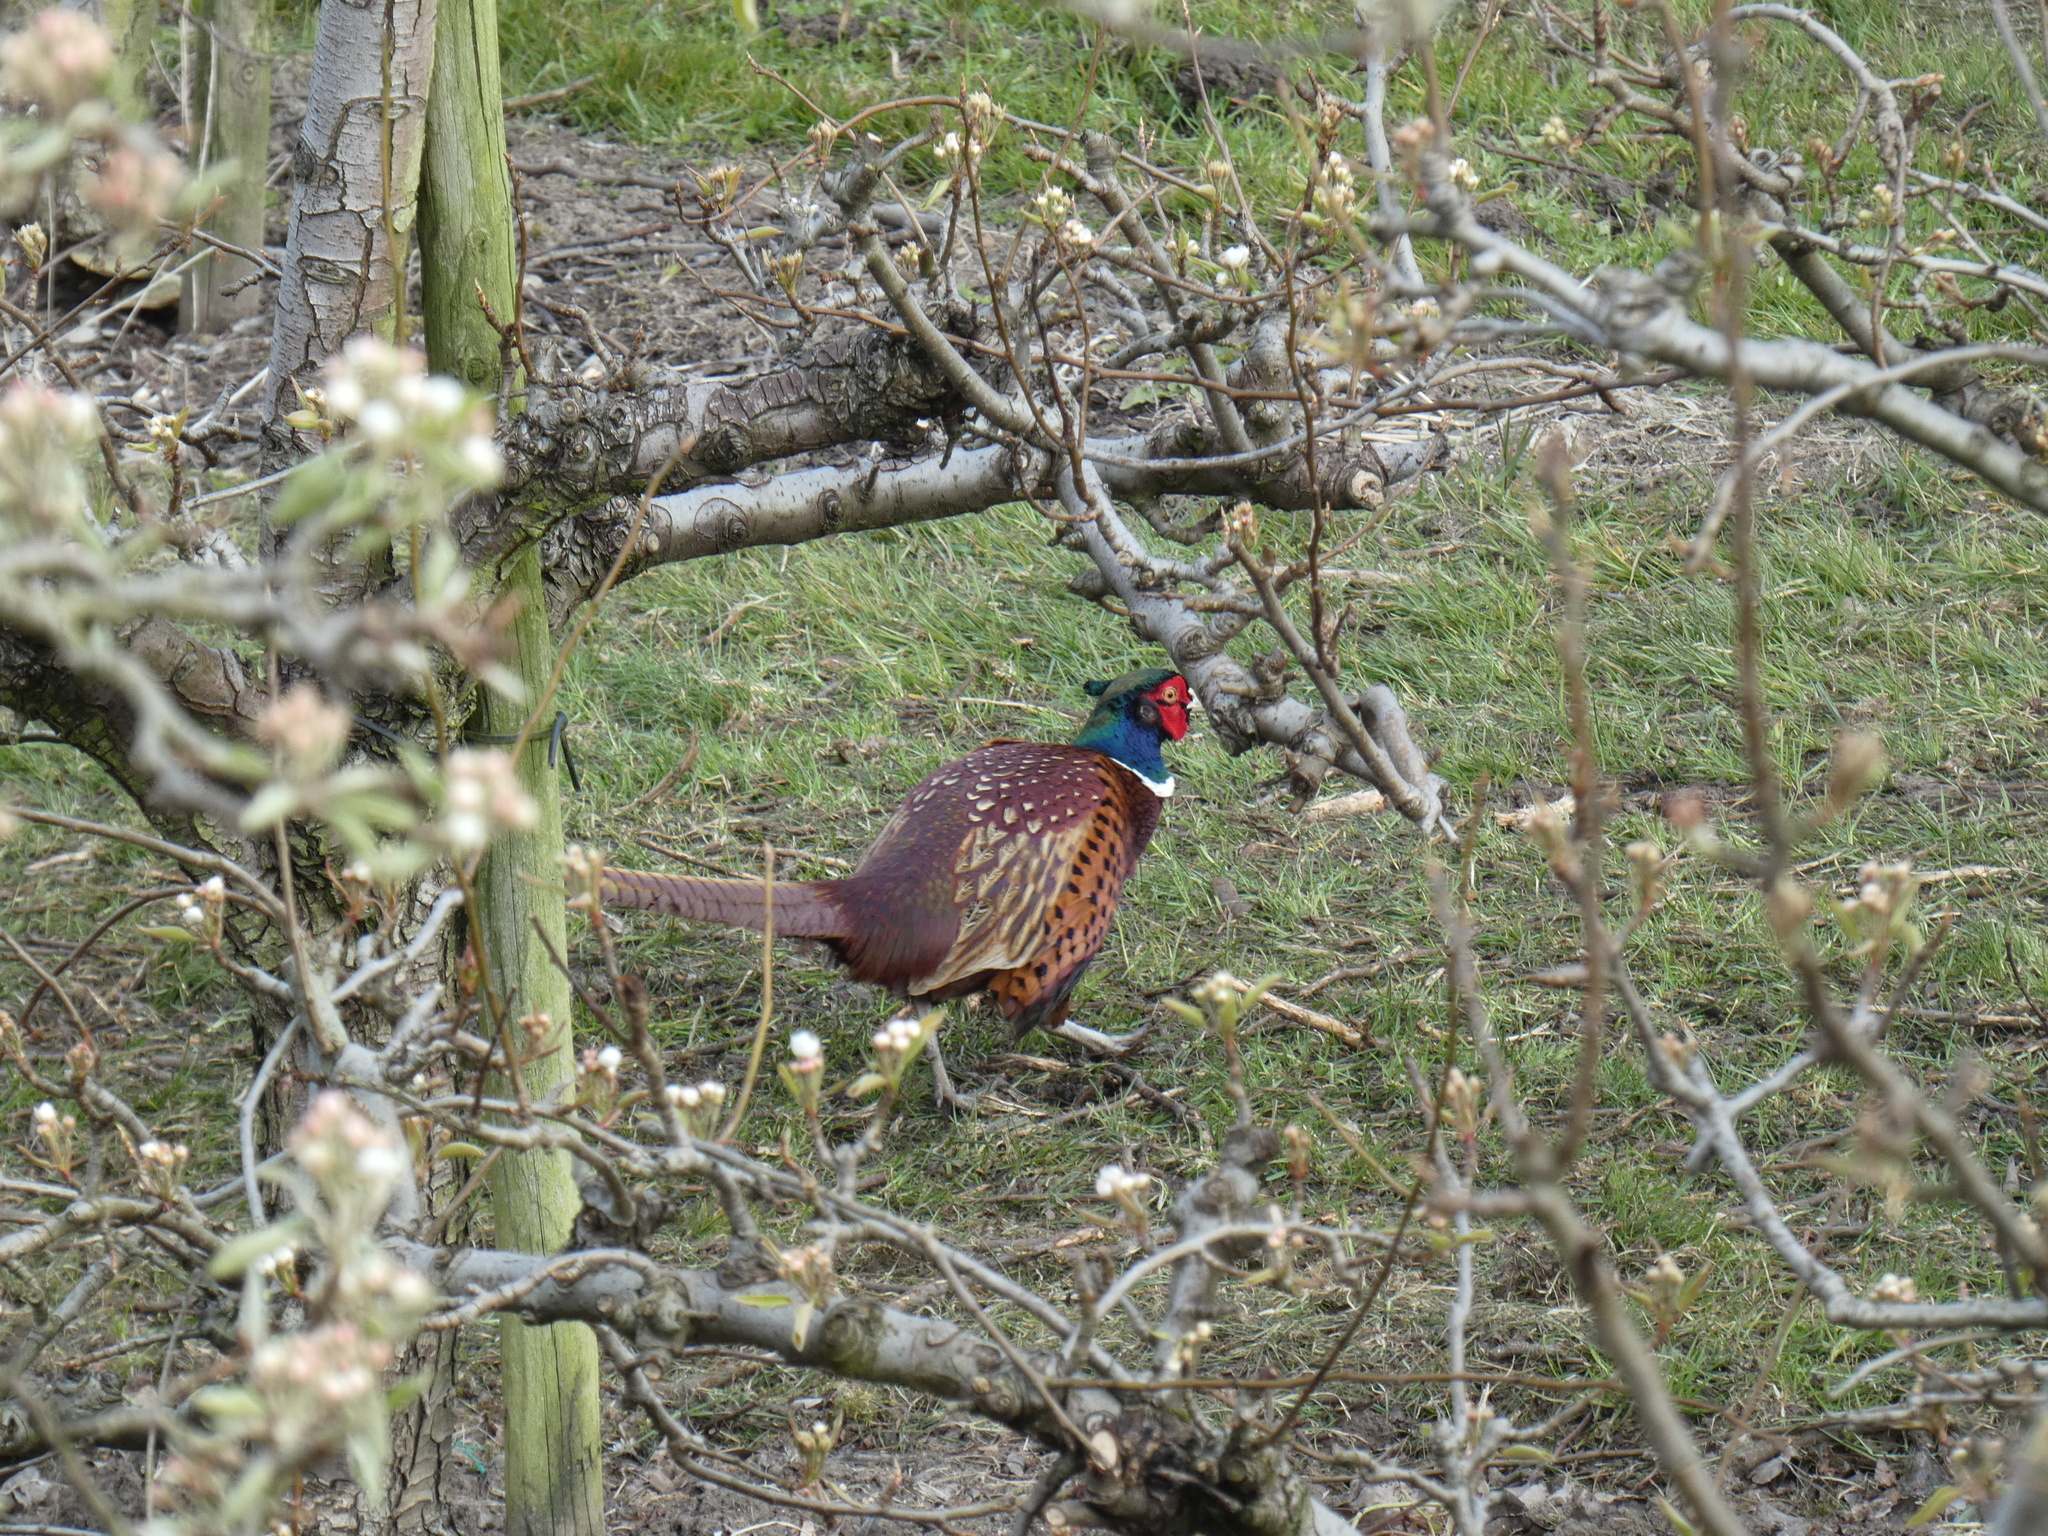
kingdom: Animalia
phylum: Chordata
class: Aves
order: Galliformes
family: Phasianidae
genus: Phasianus
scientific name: Phasianus colchicus
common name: Common pheasant
